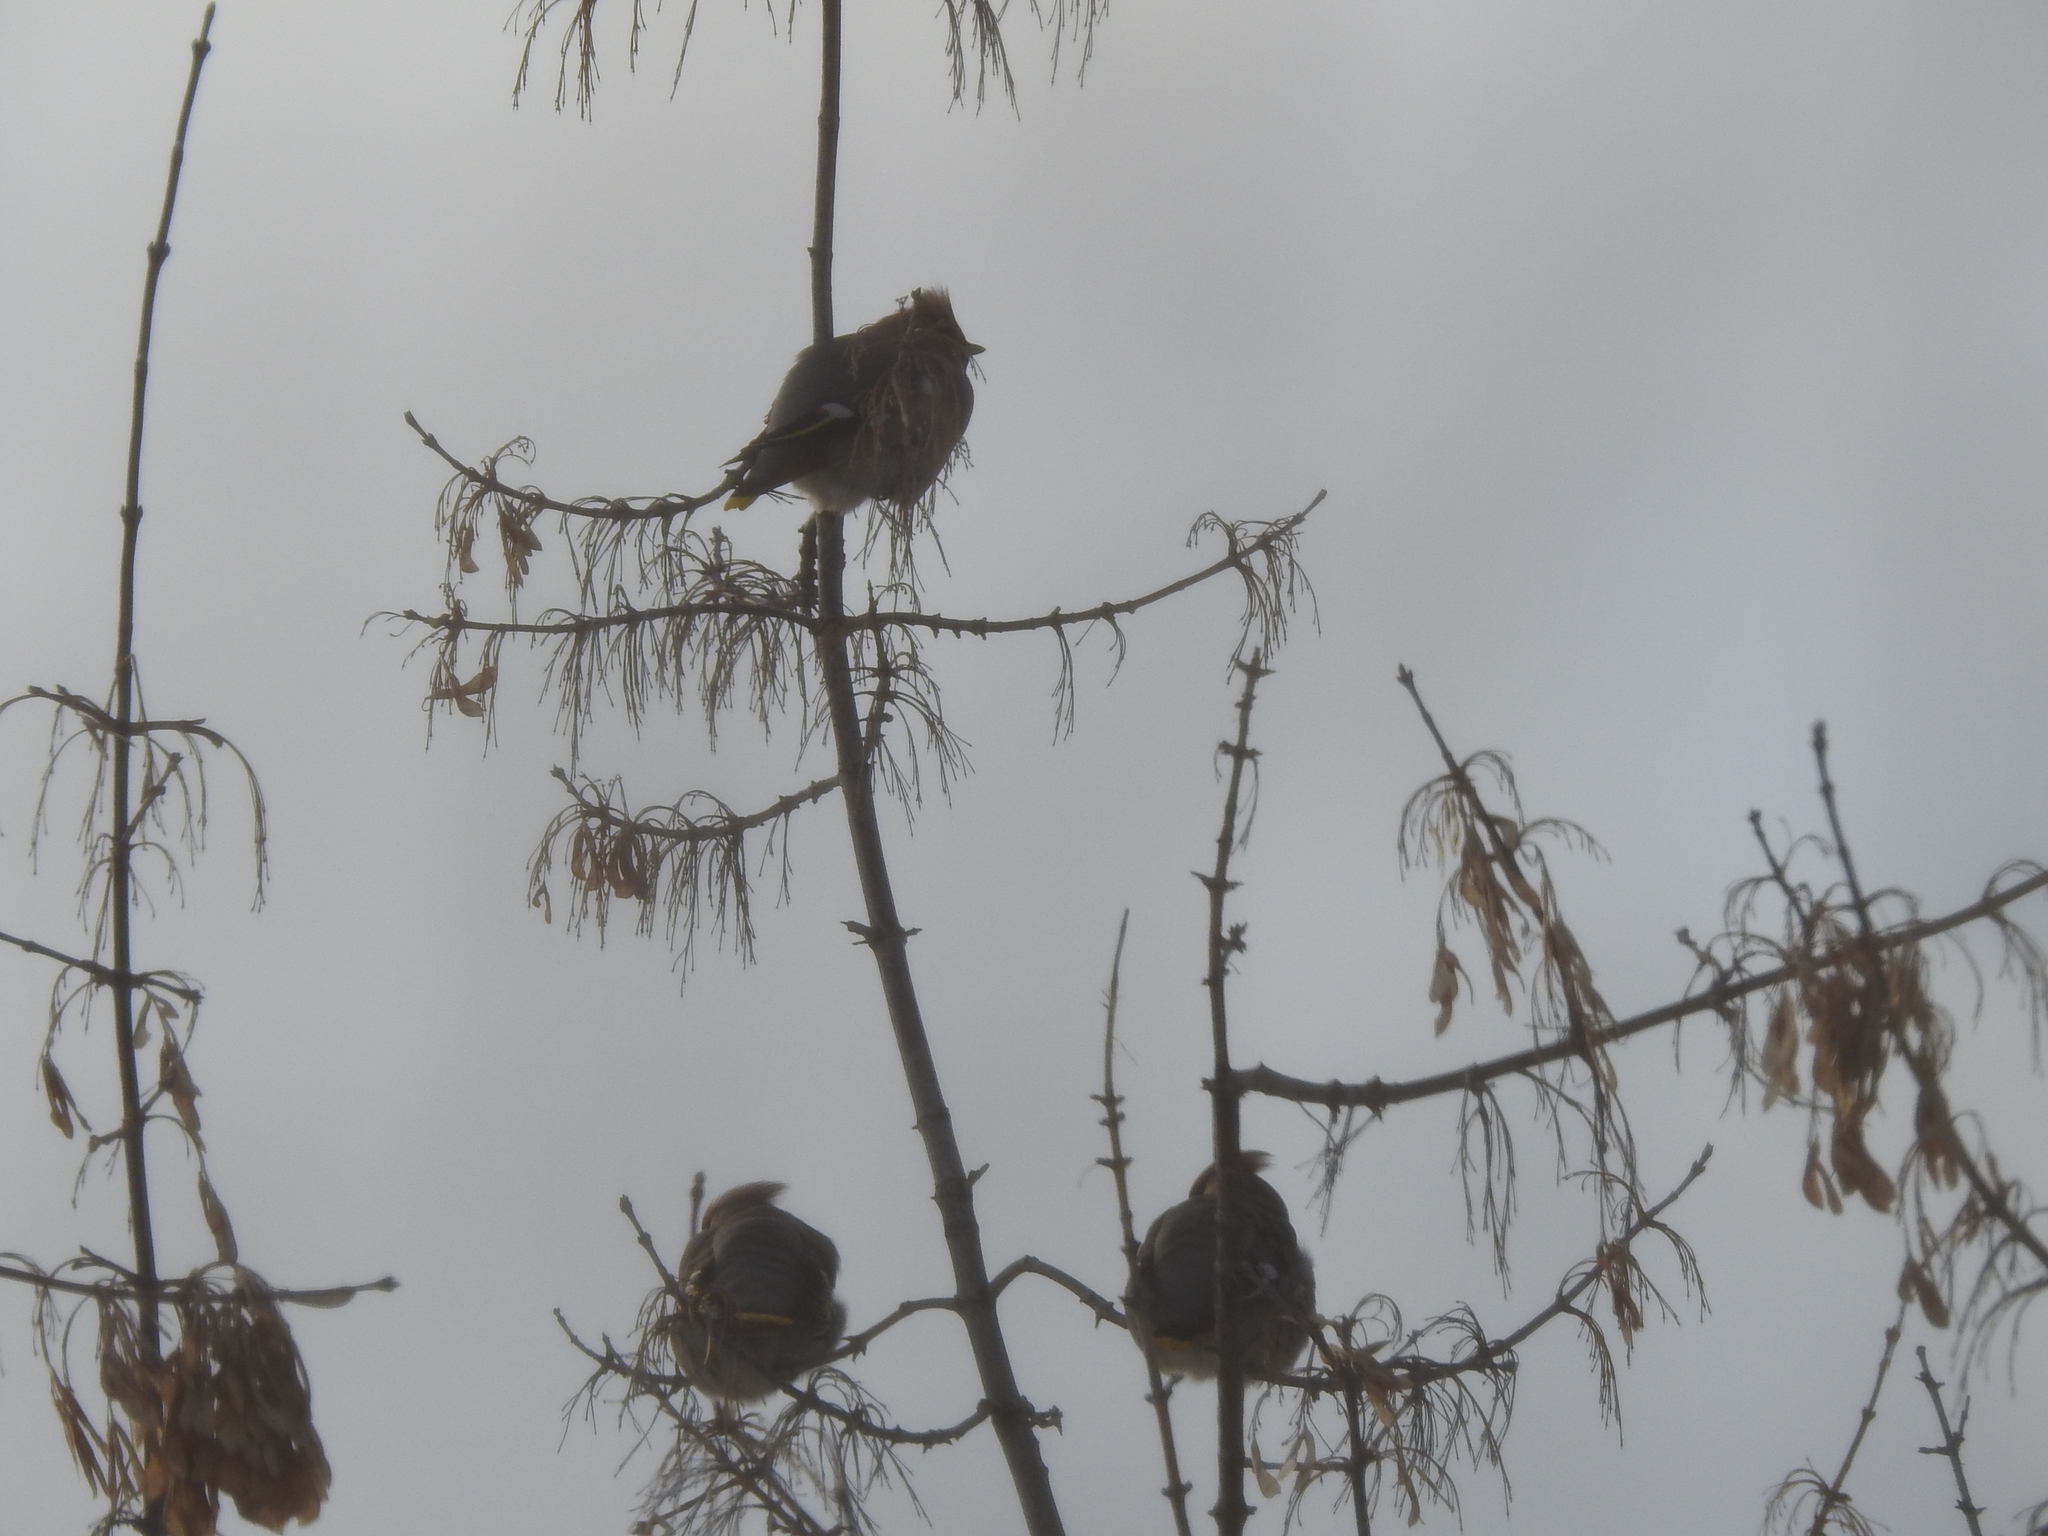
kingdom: Animalia
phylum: Chordata
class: Aves
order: Passeriformes
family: Bombycillidae
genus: Bombycilla
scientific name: Bombycilla garrulus
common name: Bohemian waxwing
